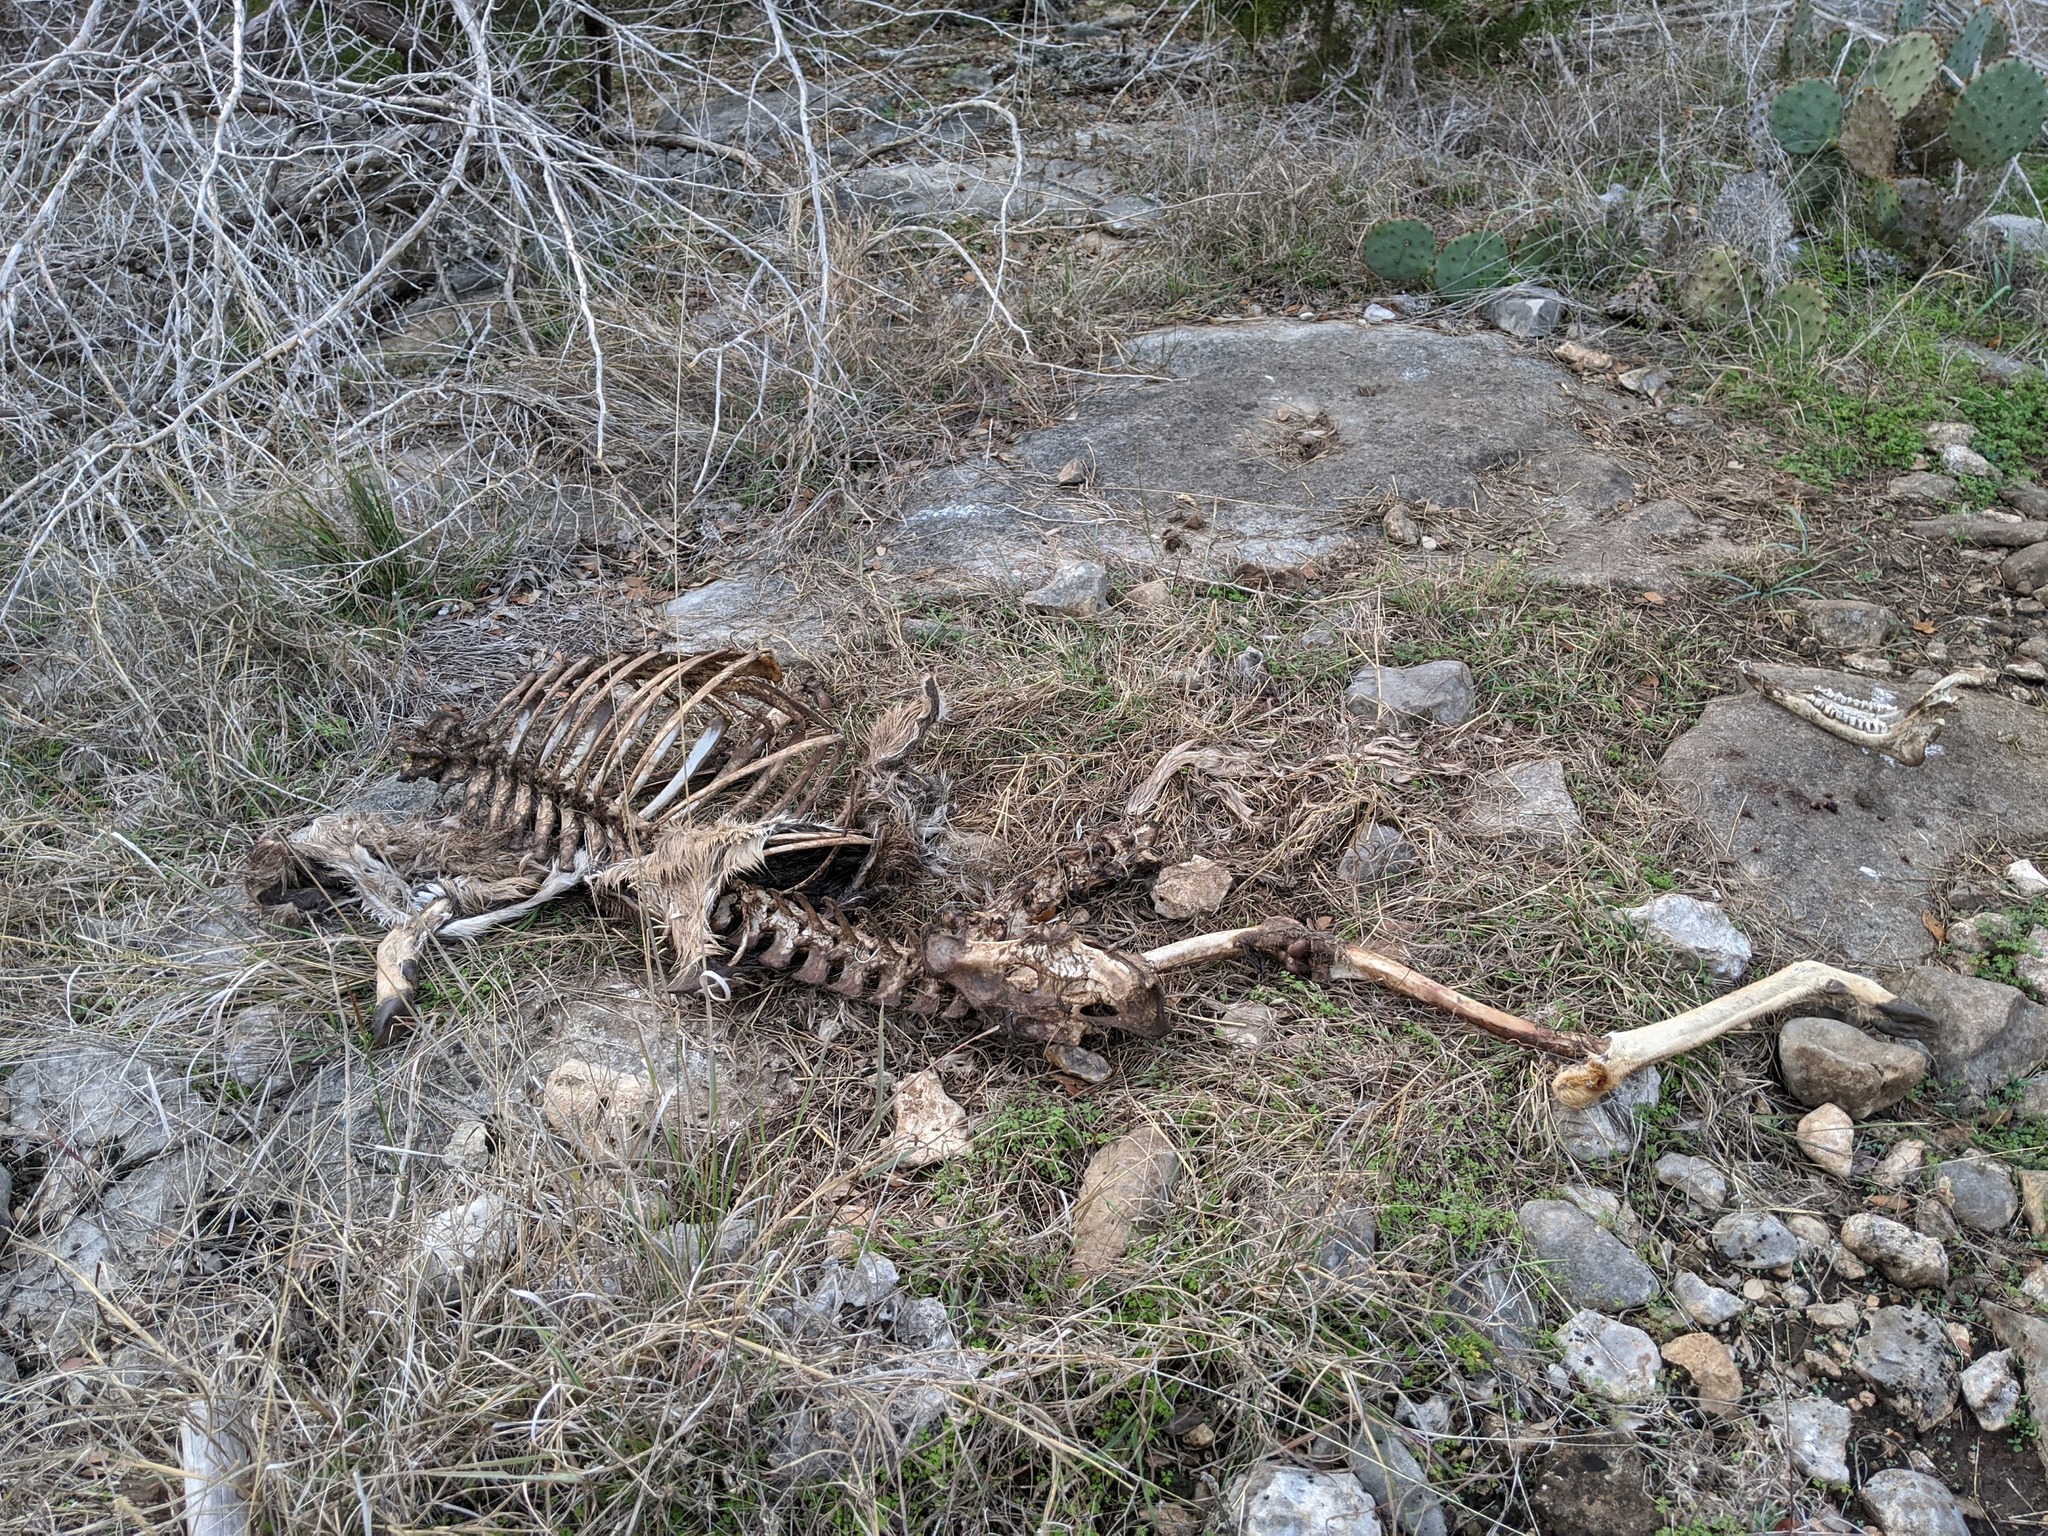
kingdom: Animalia
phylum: Chordata
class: Mammalia
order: Artiodactyla
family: Cervidae
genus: Odocoileus
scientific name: Odocoileus virginianus
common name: White-tailed deer
